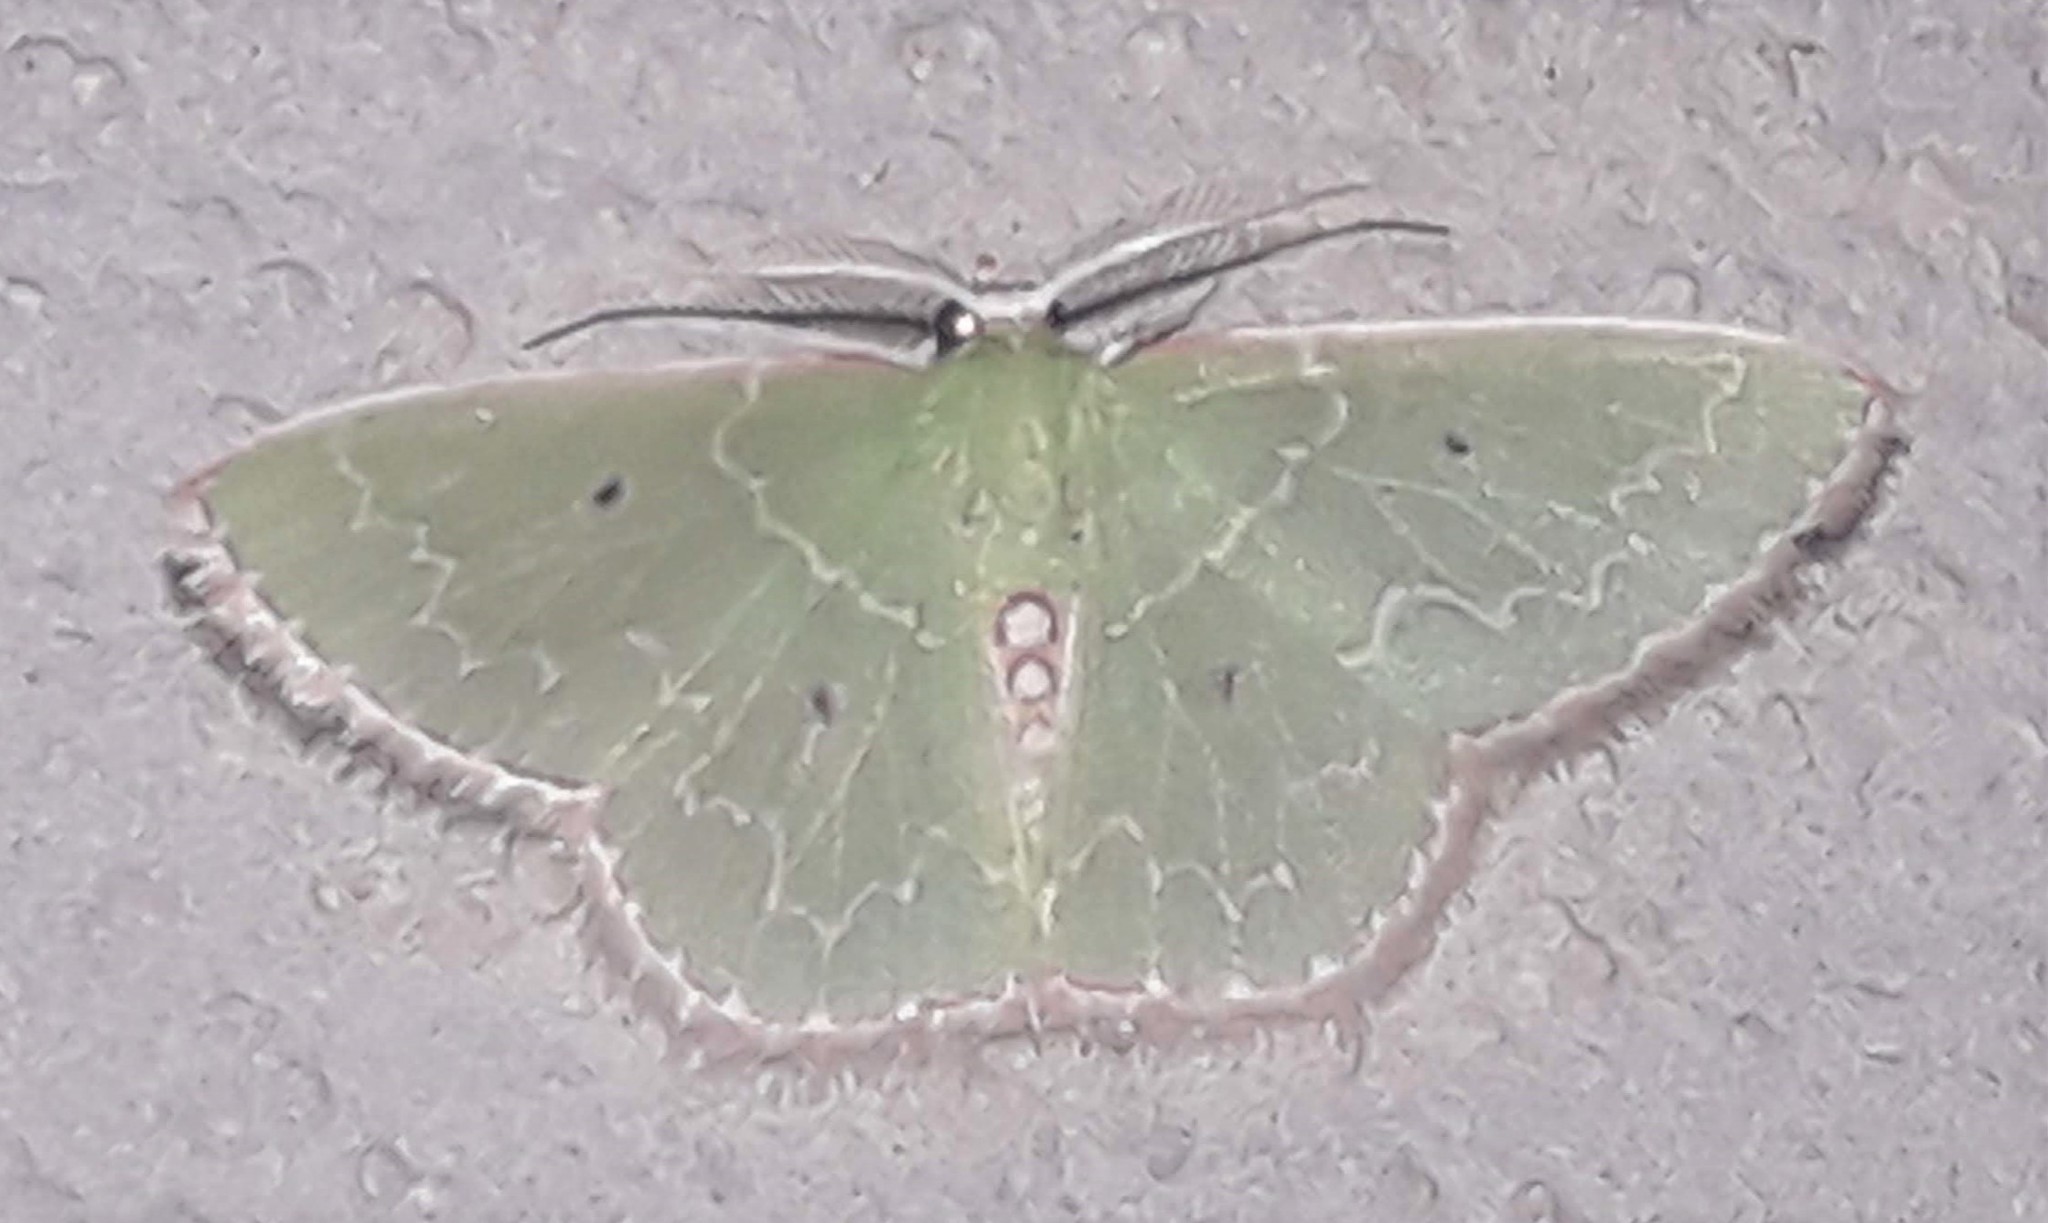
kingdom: Animalia
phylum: Arthropoda
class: Insecta
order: Lepidoptera
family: Geometridae
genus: Synchlora
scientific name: Synchlora concinnaria
